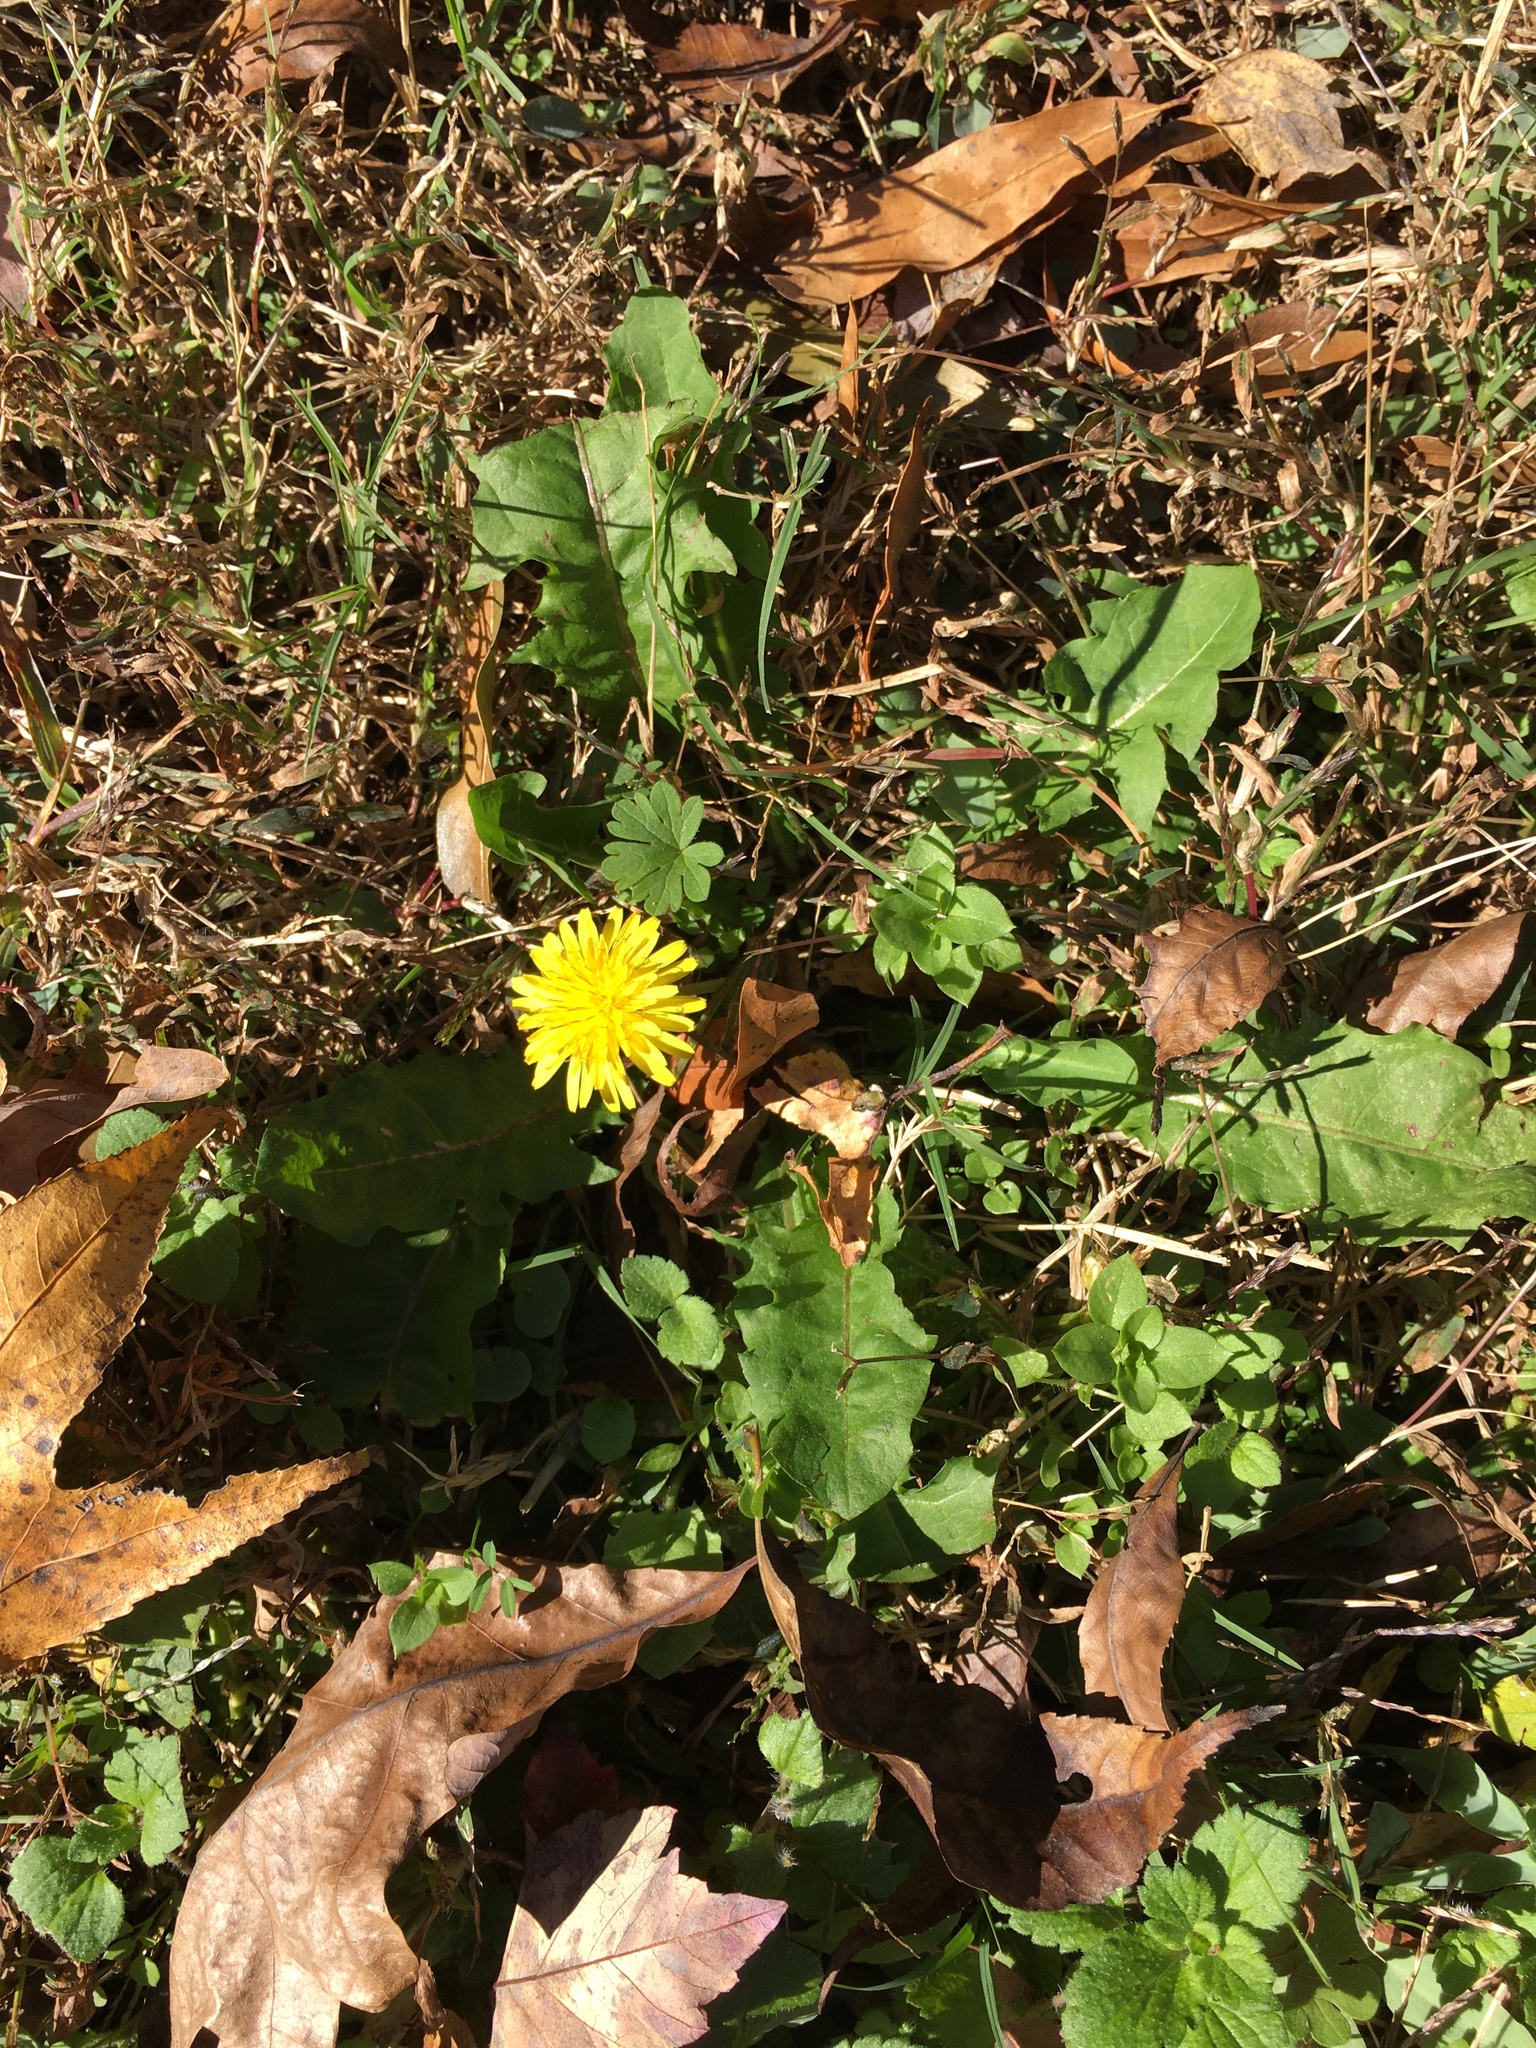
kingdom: Plantae
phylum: Tracheophyta
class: Magnoliopsida
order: Asterales
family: Asteraceae
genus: Taraxacum
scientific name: Taraxacum officinale
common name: Common dandelion
